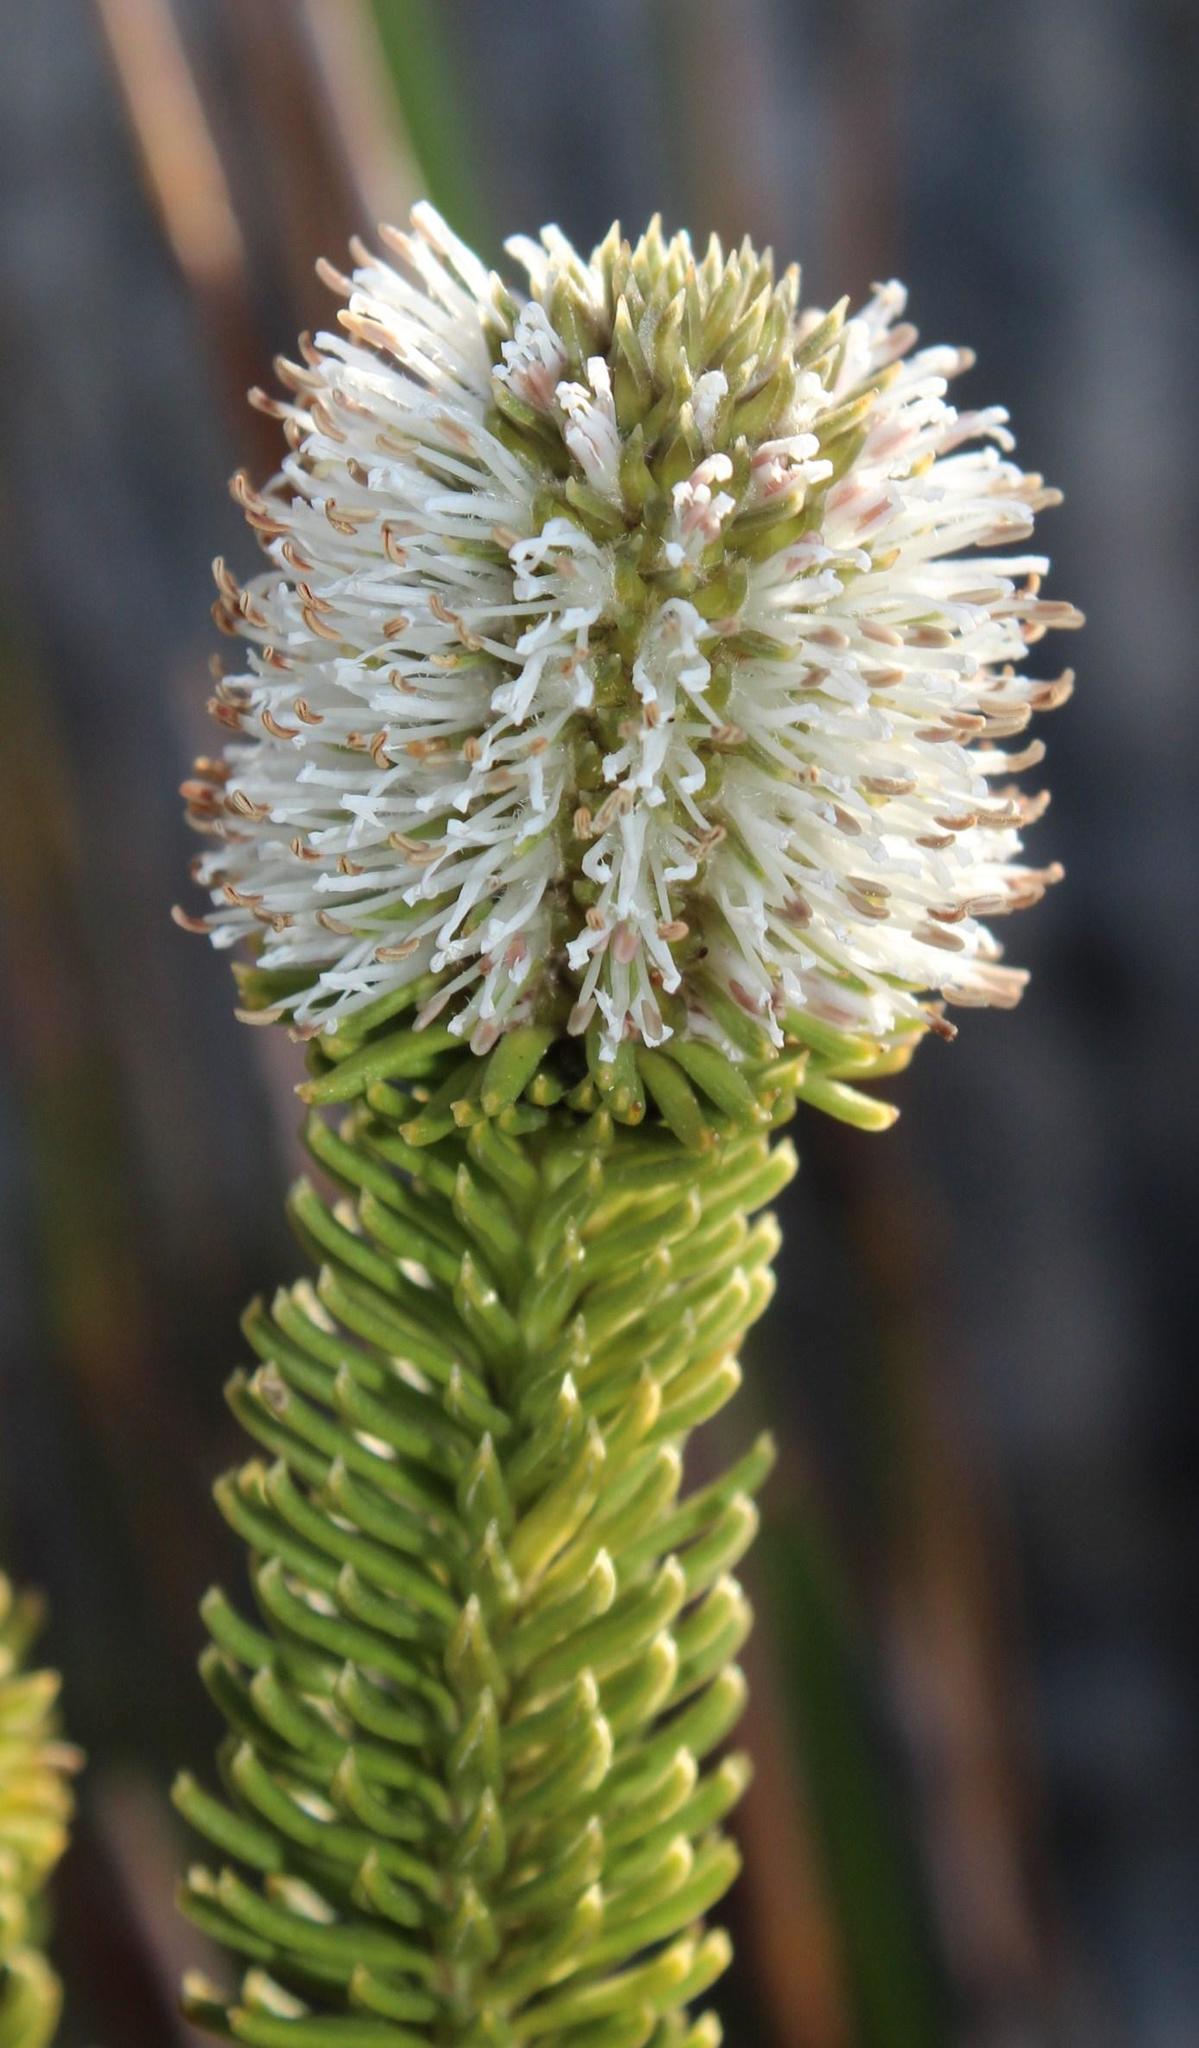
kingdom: Plantae
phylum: Tracheophyta
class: Magnoliopsida
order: Lamiales
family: Stilbaceae
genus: Stilbe
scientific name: Stilbe vestita
